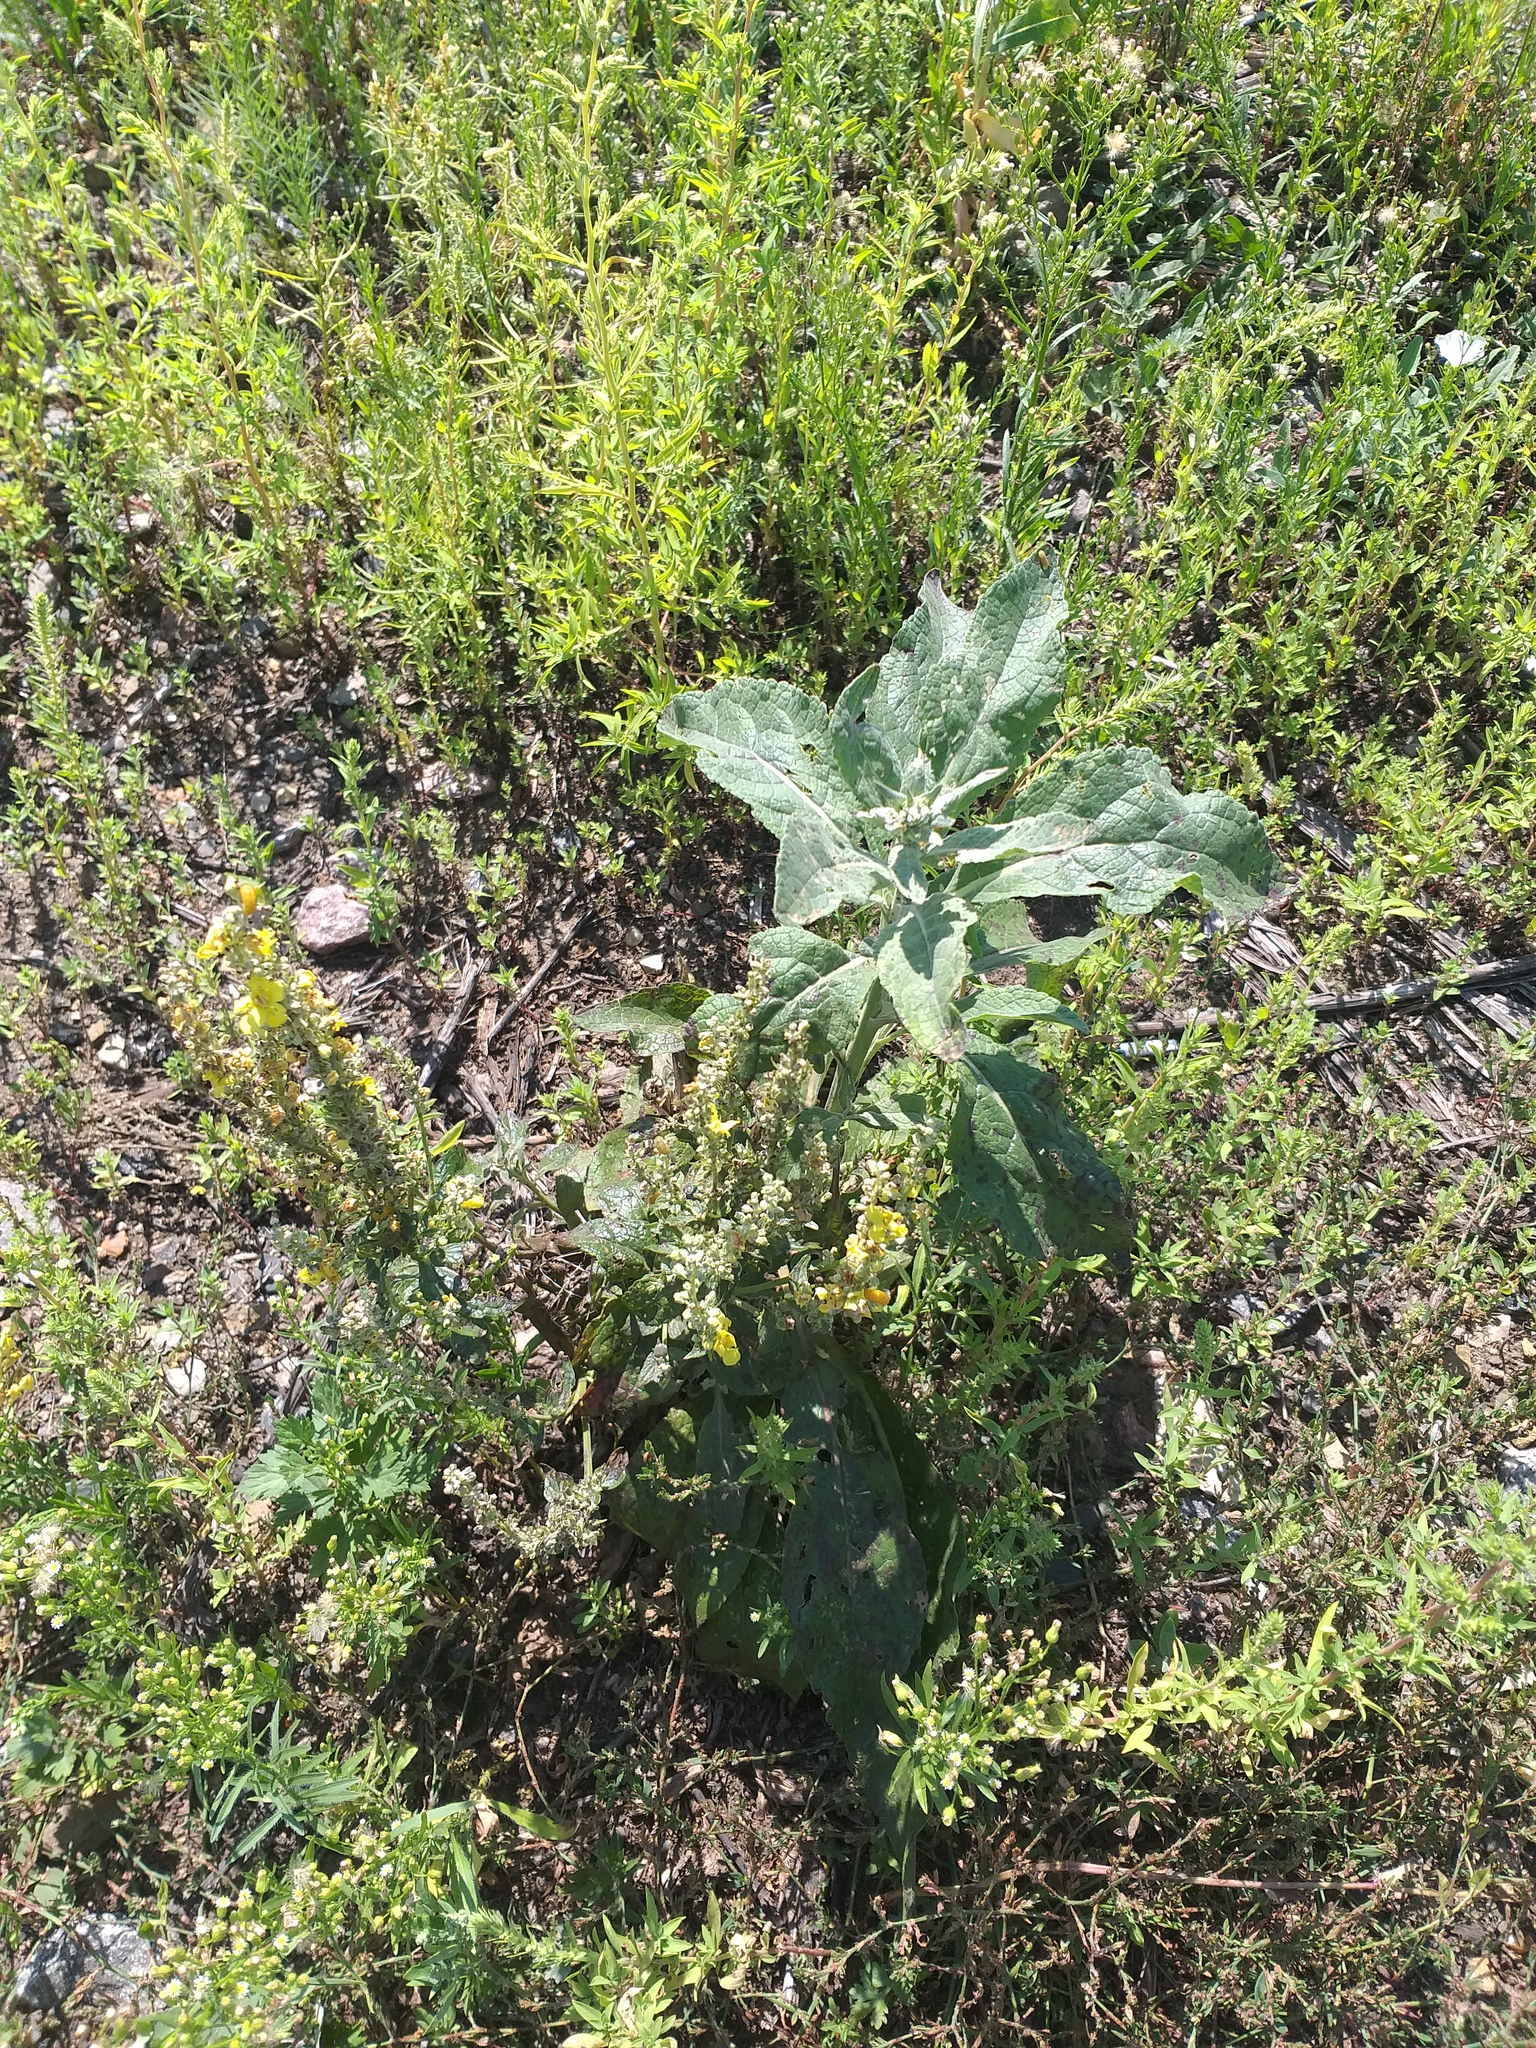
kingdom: Plantae
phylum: Tracheophyta
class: Magnoliopsida
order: Lamiales
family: Scrophulariaceae
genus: Verbascum
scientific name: Verbascum lychnitis
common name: White mullein
